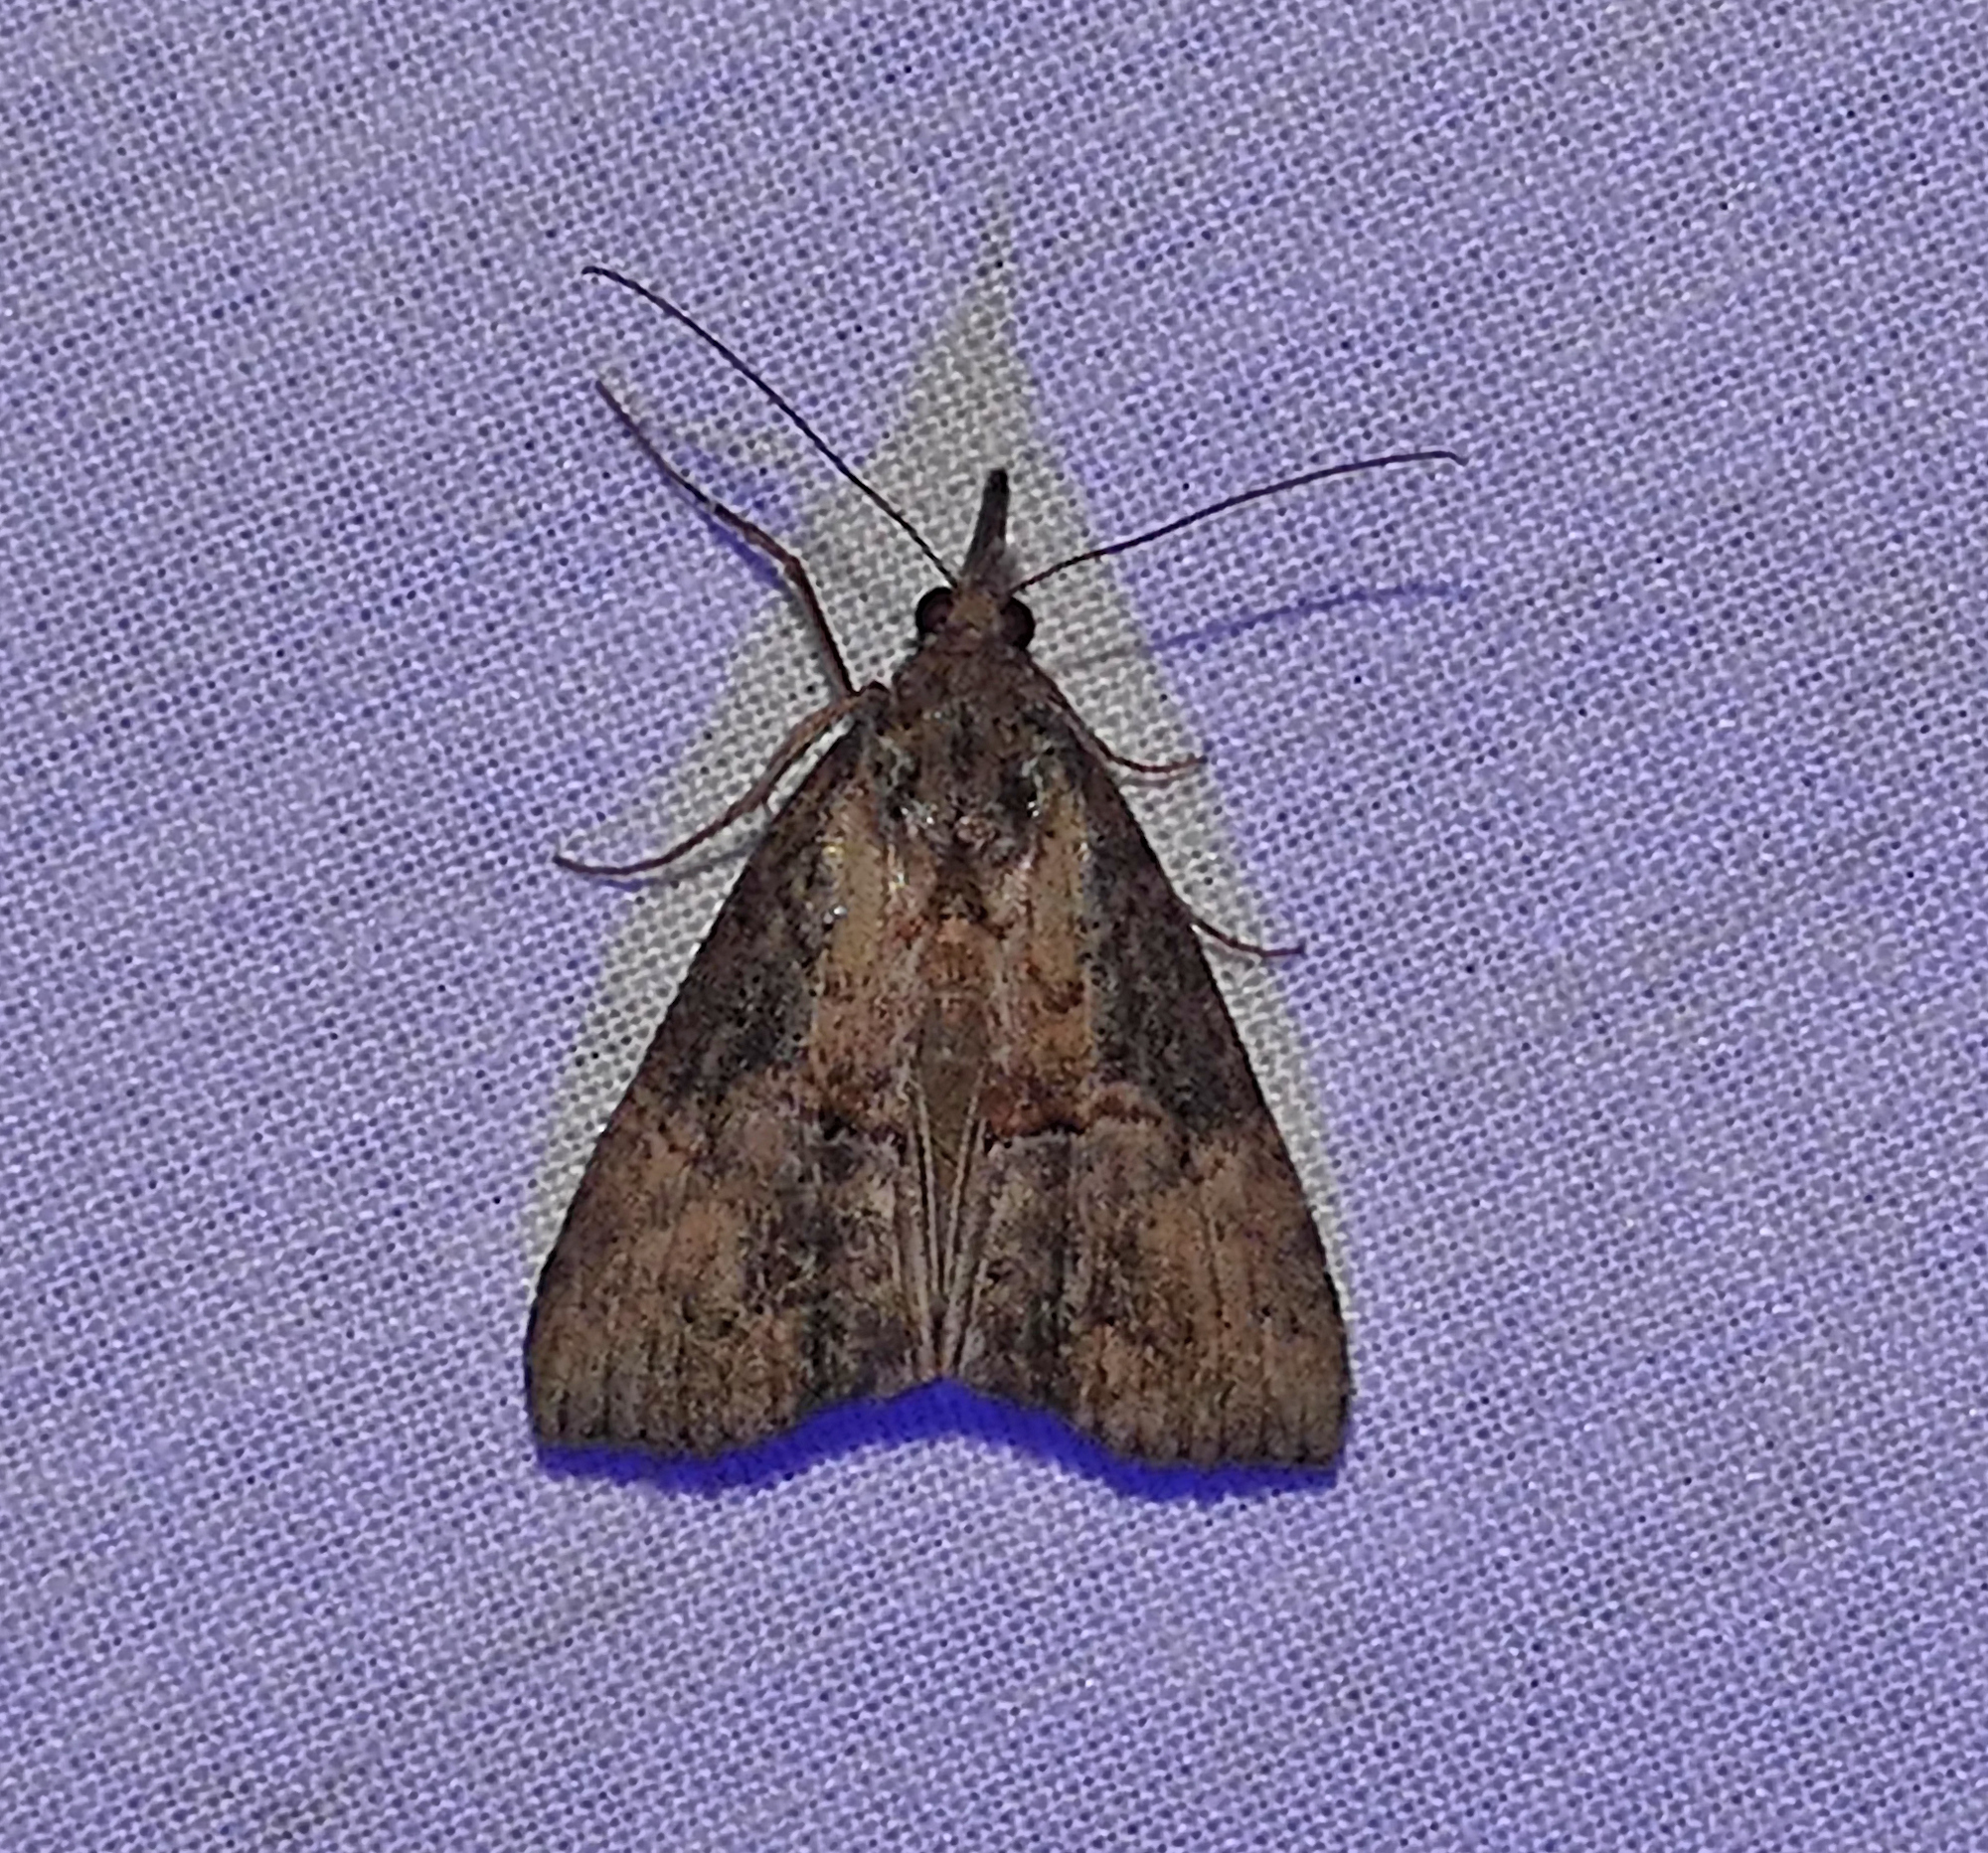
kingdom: Animalia
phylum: Arthropoda
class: Insecta
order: Lepidoptera
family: Erebidae
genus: Hypena
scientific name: Hypena scabra
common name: Green cloverworm
